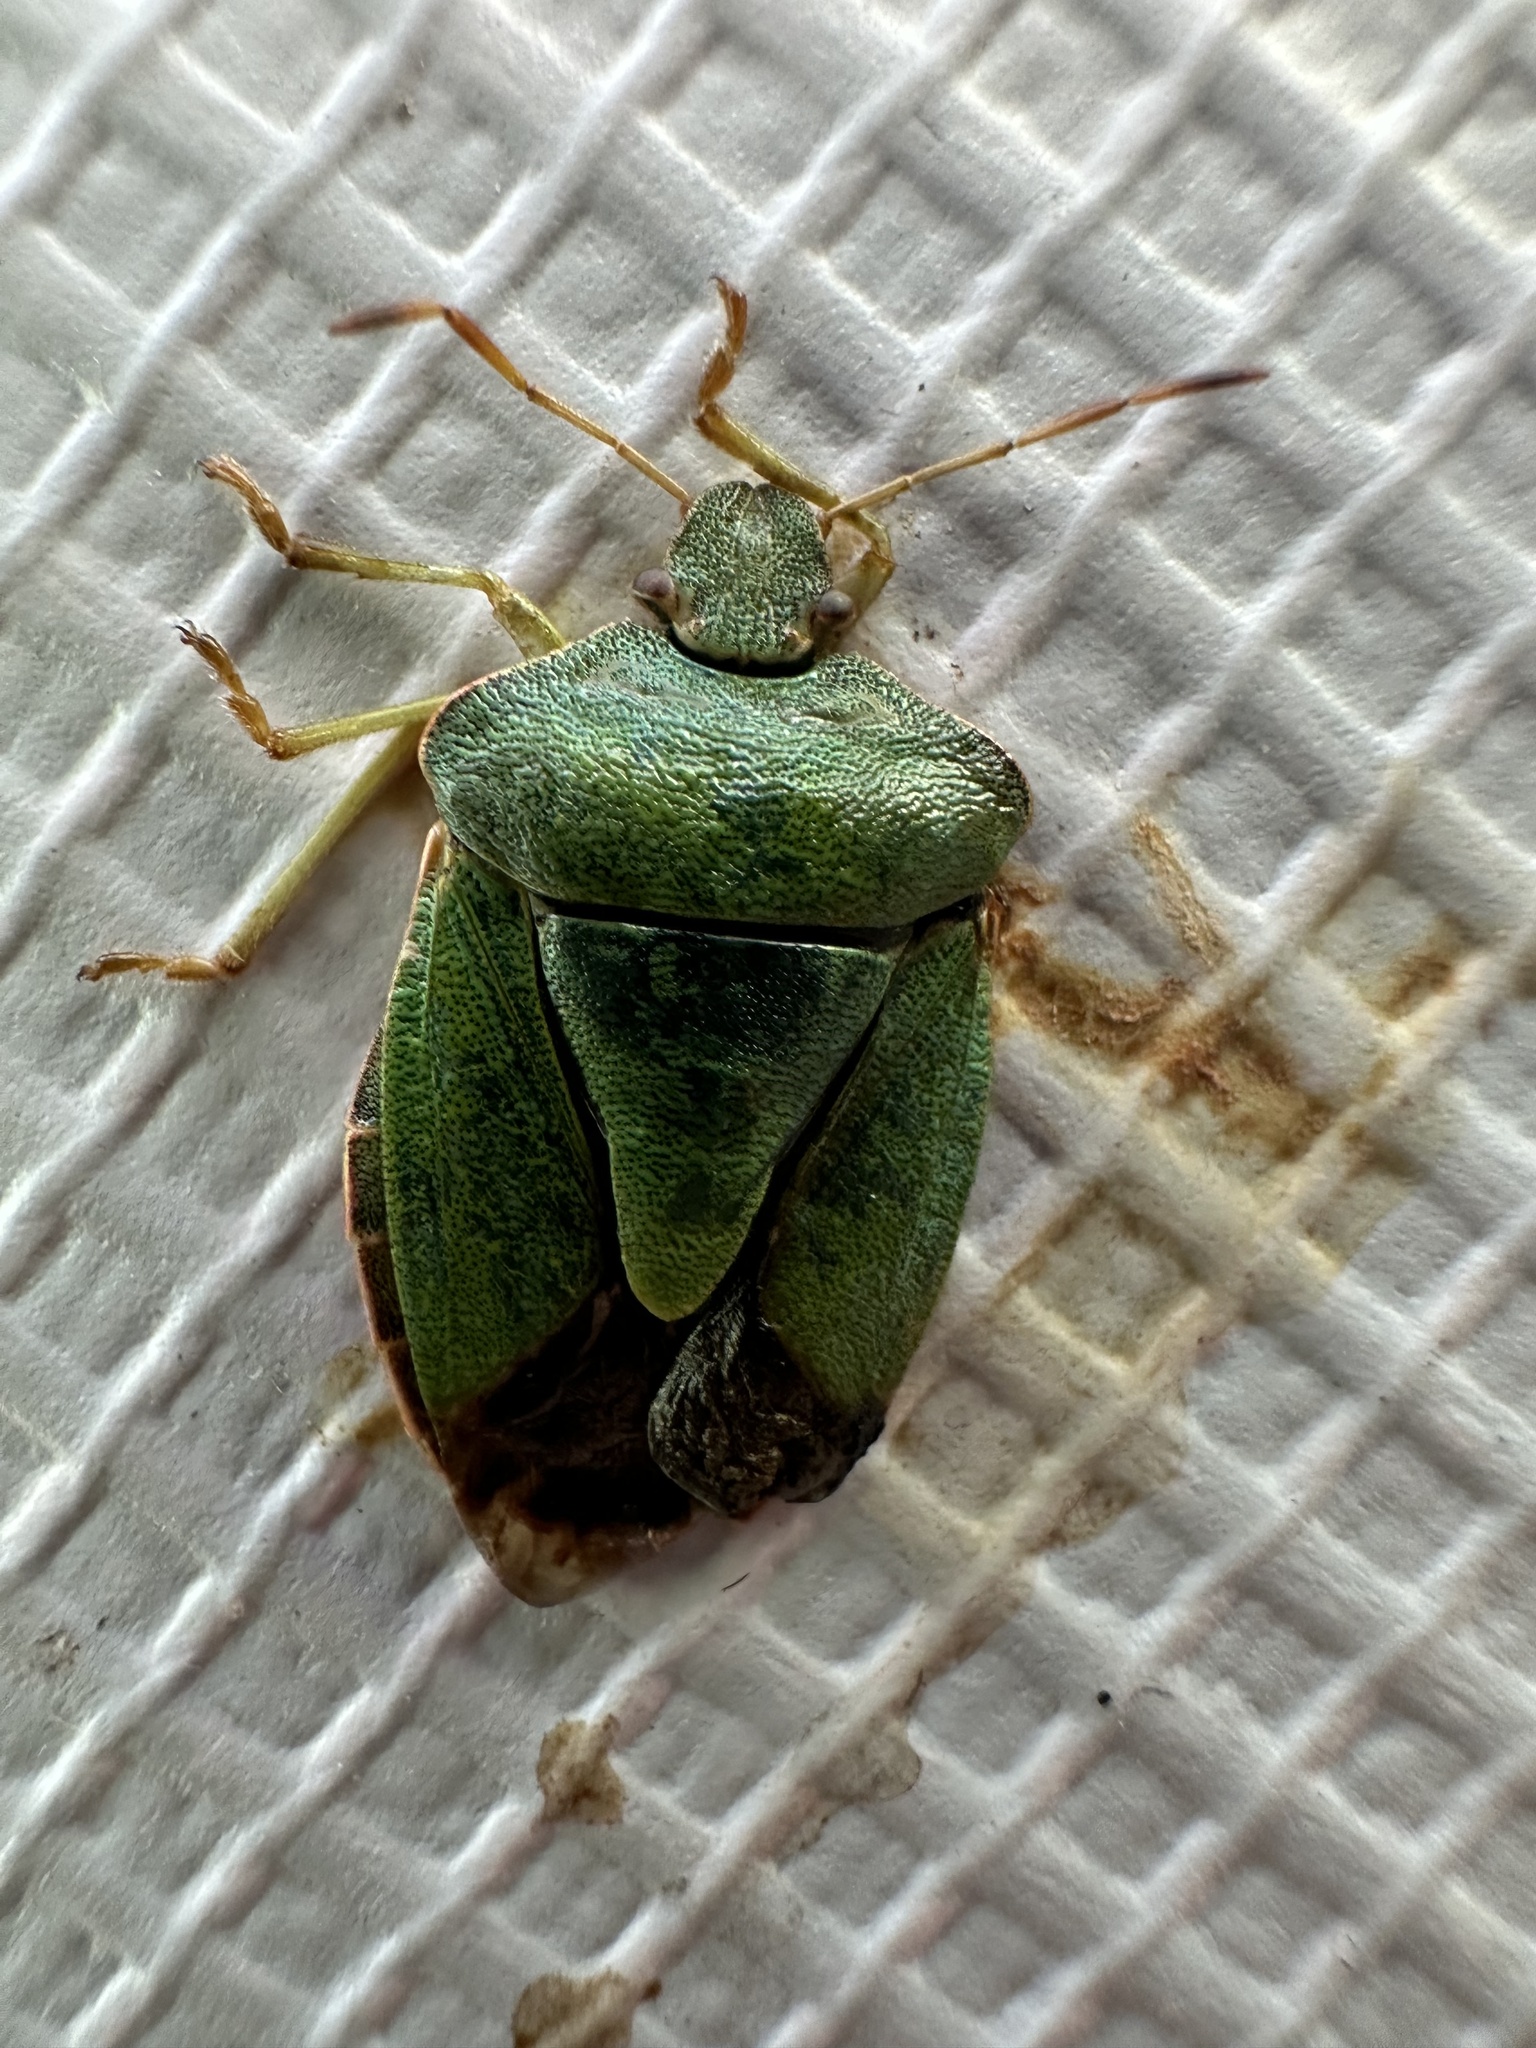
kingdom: Animalia
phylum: Arthropoda
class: Insecta
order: Hemiptera
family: Pentatomidae
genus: Palomena
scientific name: Palomena prasina
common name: Green shieldbug
